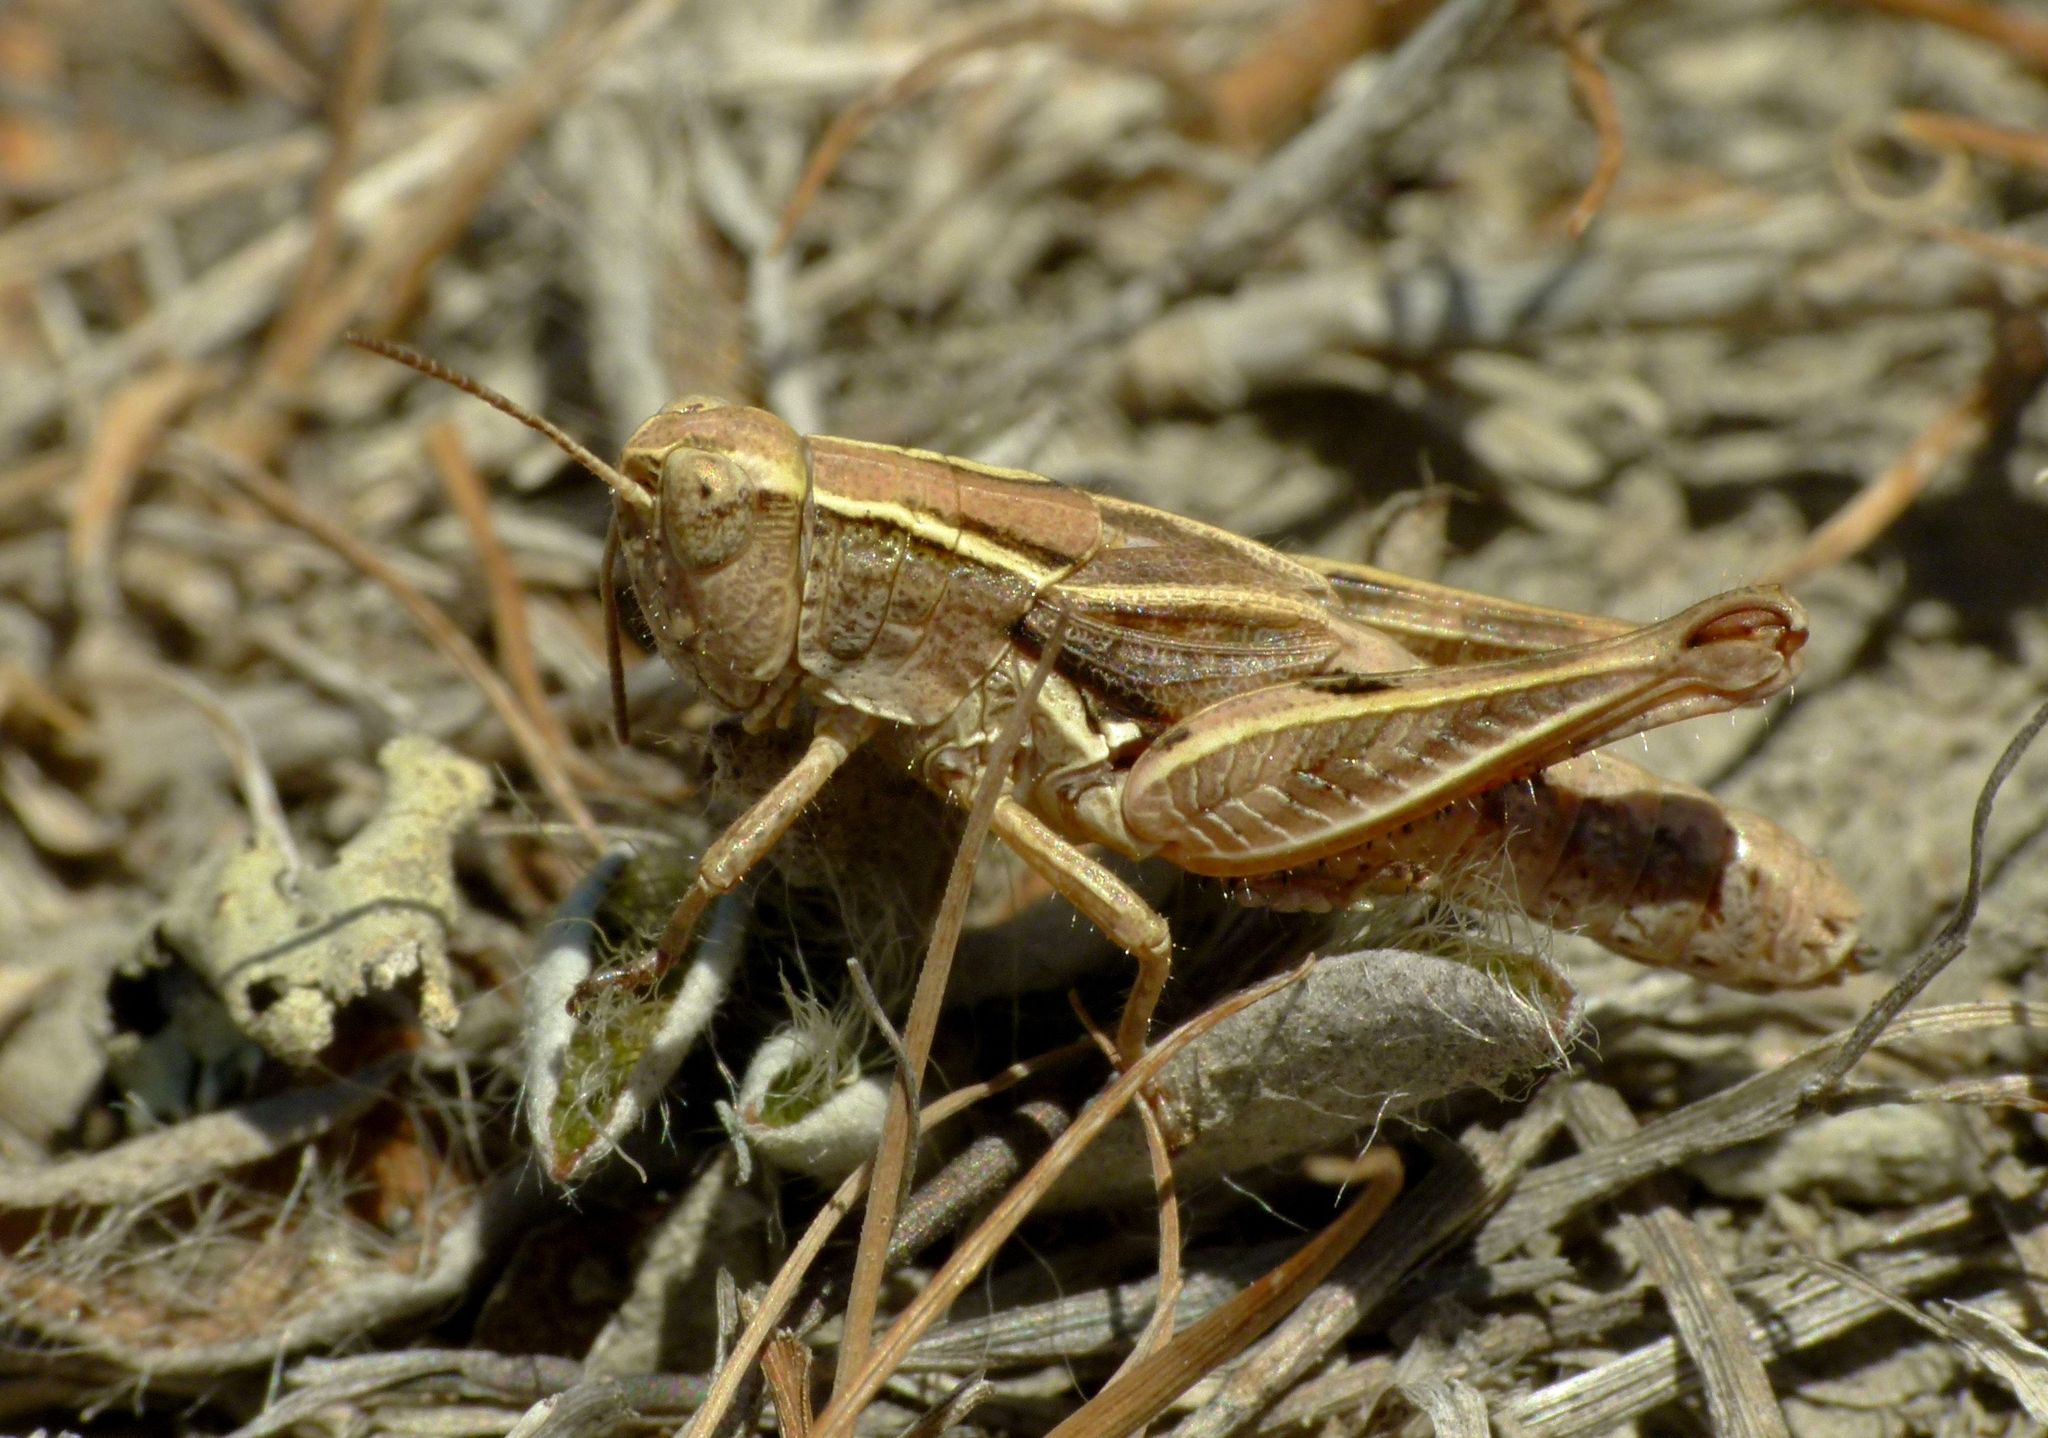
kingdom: Animalia
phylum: Arthropoda
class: Insecta
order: Orthoptera
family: Acrididae
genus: Phaulacridium
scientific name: Phaulacridium marginale
